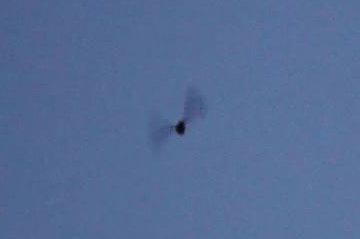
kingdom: Animalia
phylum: Chordata
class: Aves
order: Charadriiformes
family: Scolopacidae
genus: Scolopax
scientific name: Scolopax minor
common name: American woodcock
